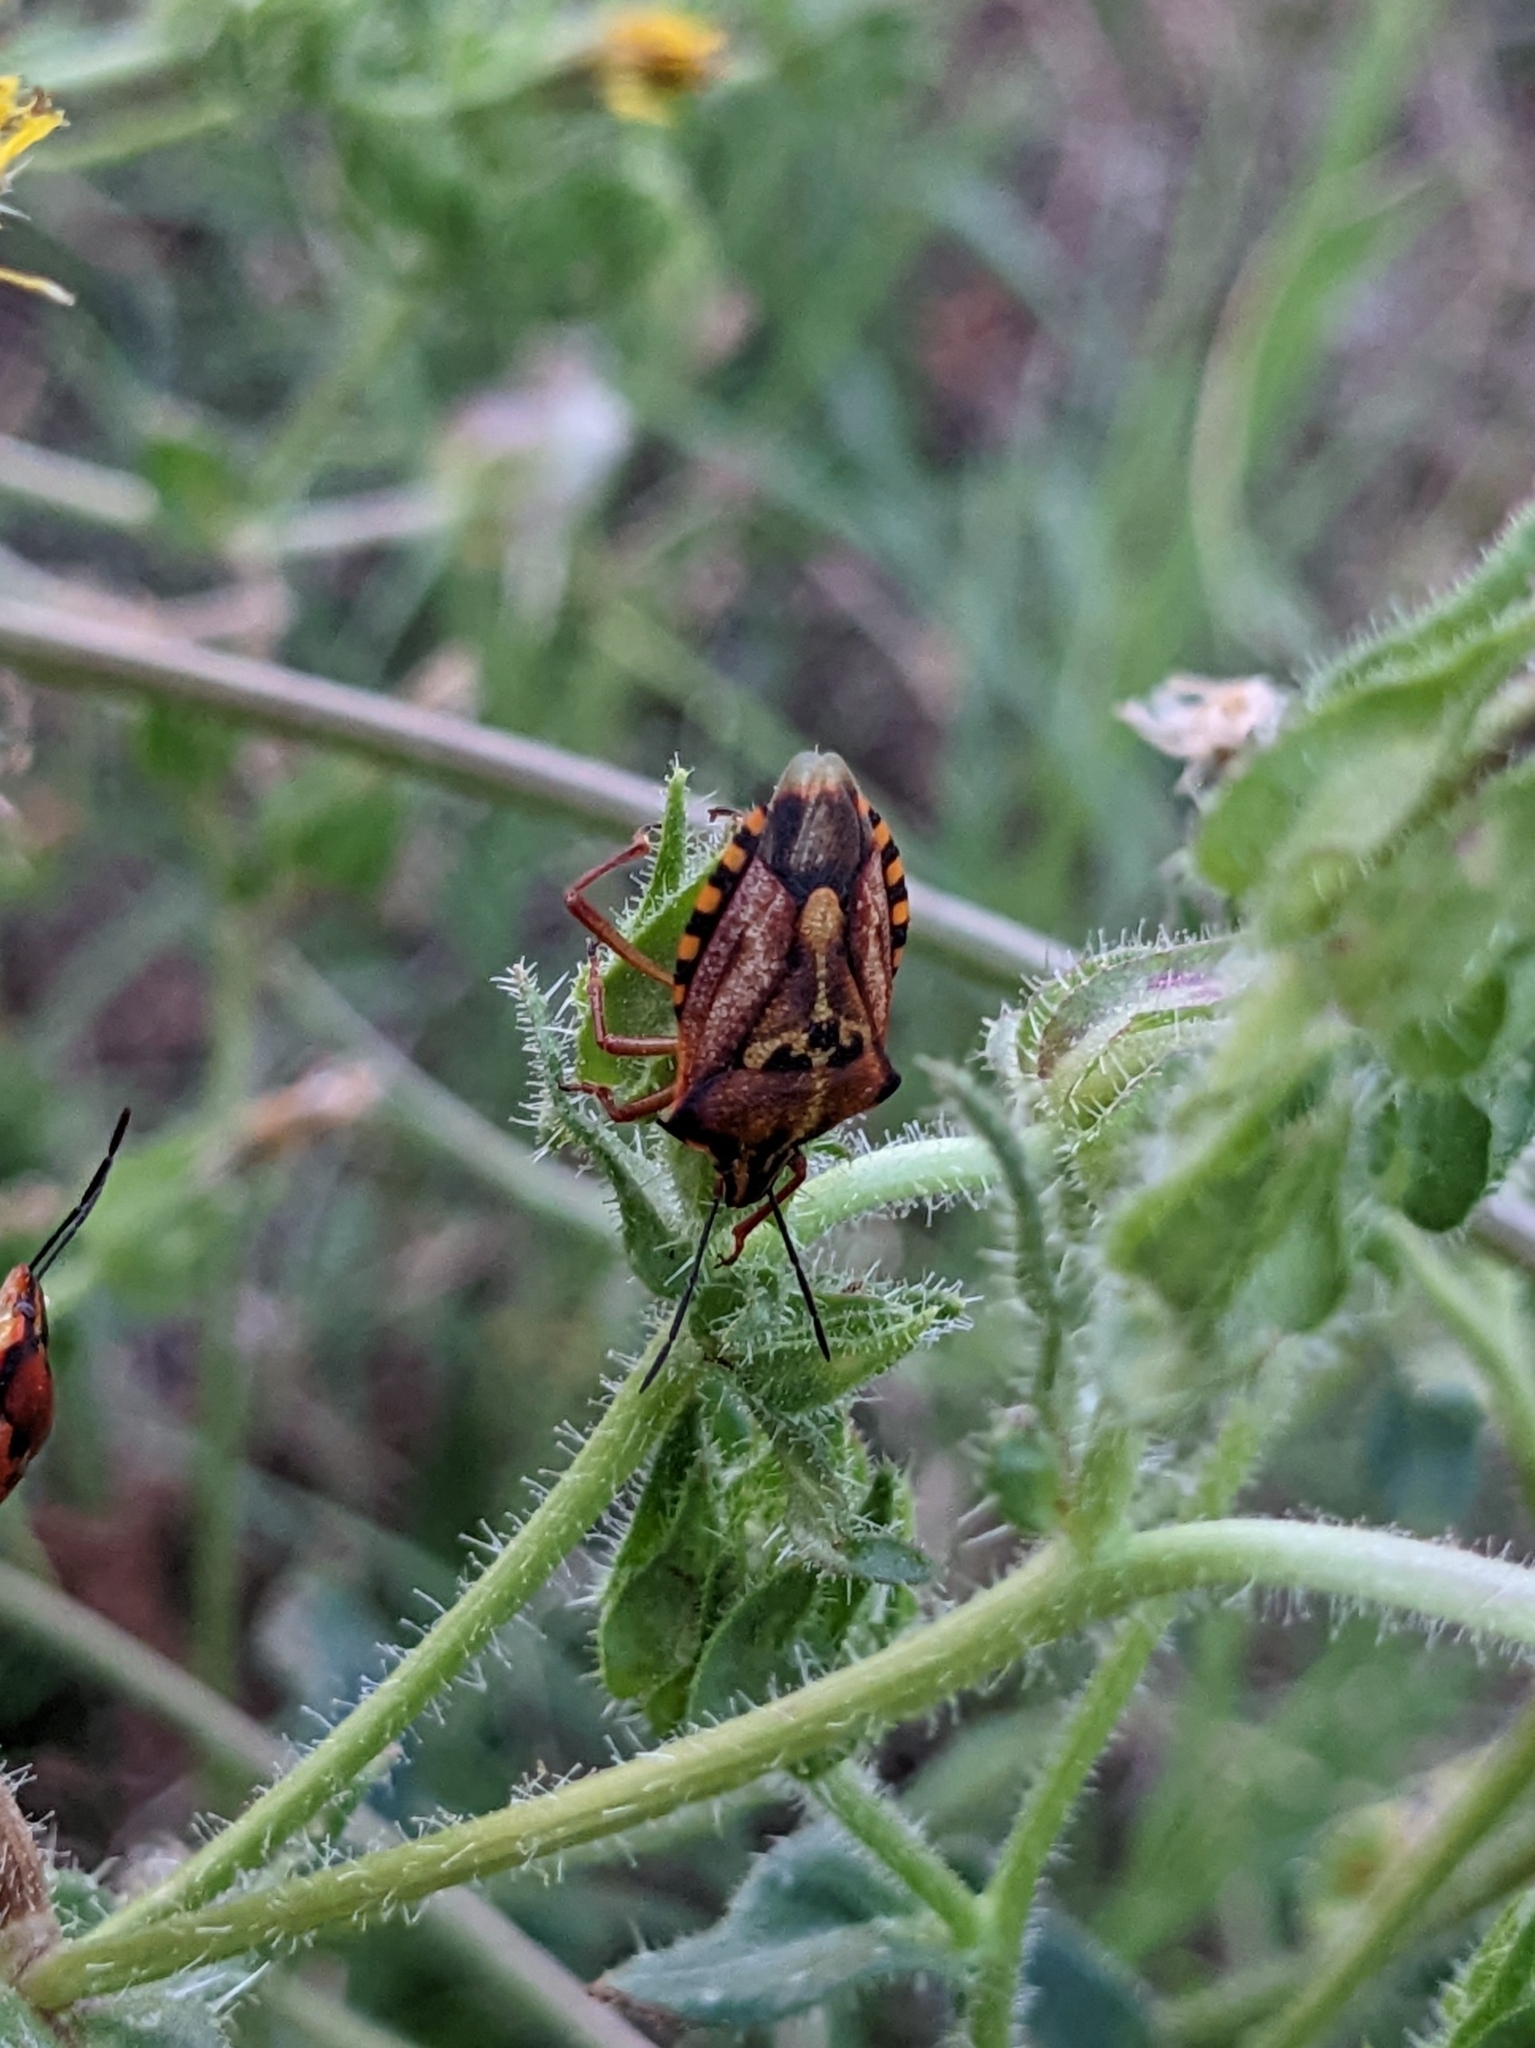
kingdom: Animalia
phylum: Arthropoda
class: Insecta
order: Hemiptera
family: Pentatomidae
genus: Carpocoris
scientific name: Carpocoris mediterraneus
